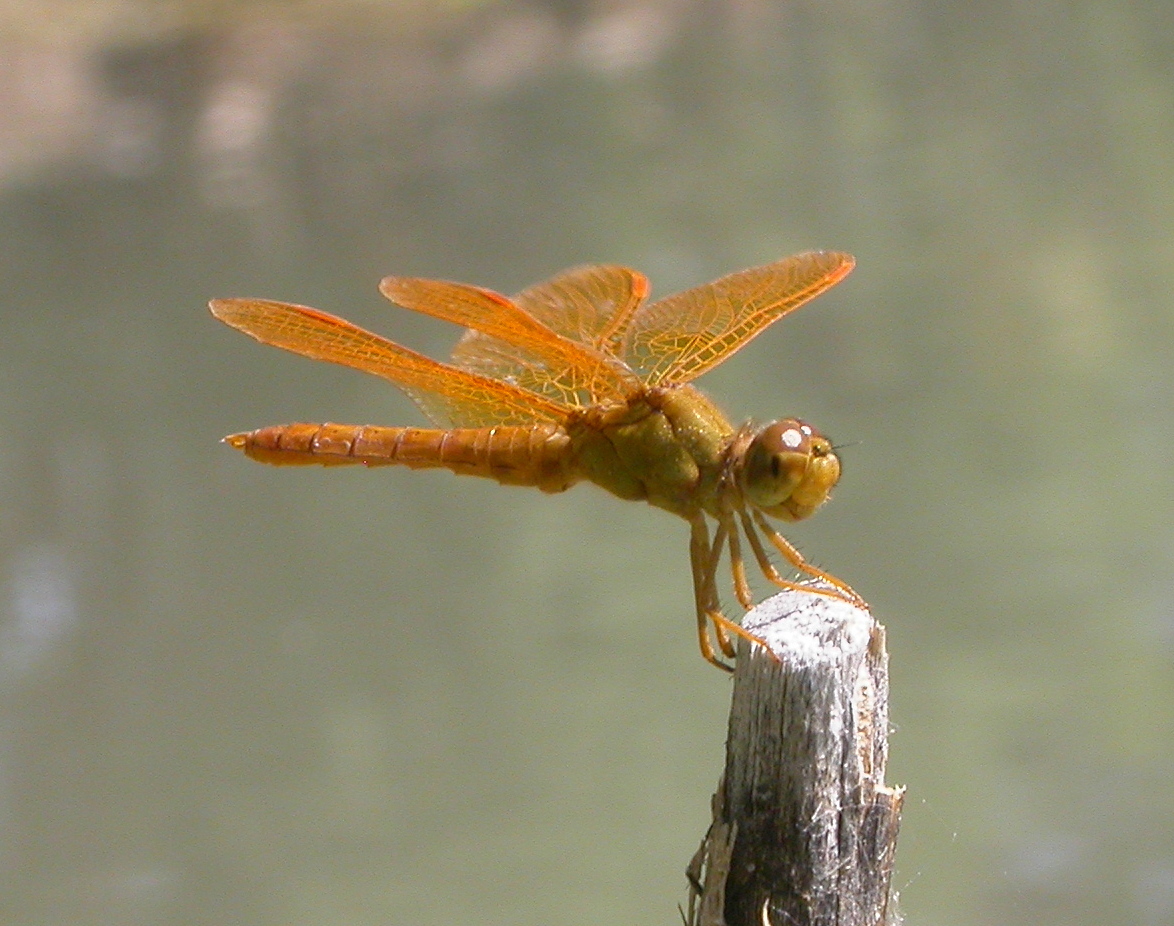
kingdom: Animalia
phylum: Arthropoda
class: Insecta
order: Odonata
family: Libellulidae
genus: Perithemis
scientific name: Perithemis intensa
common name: Mexican amberwing
